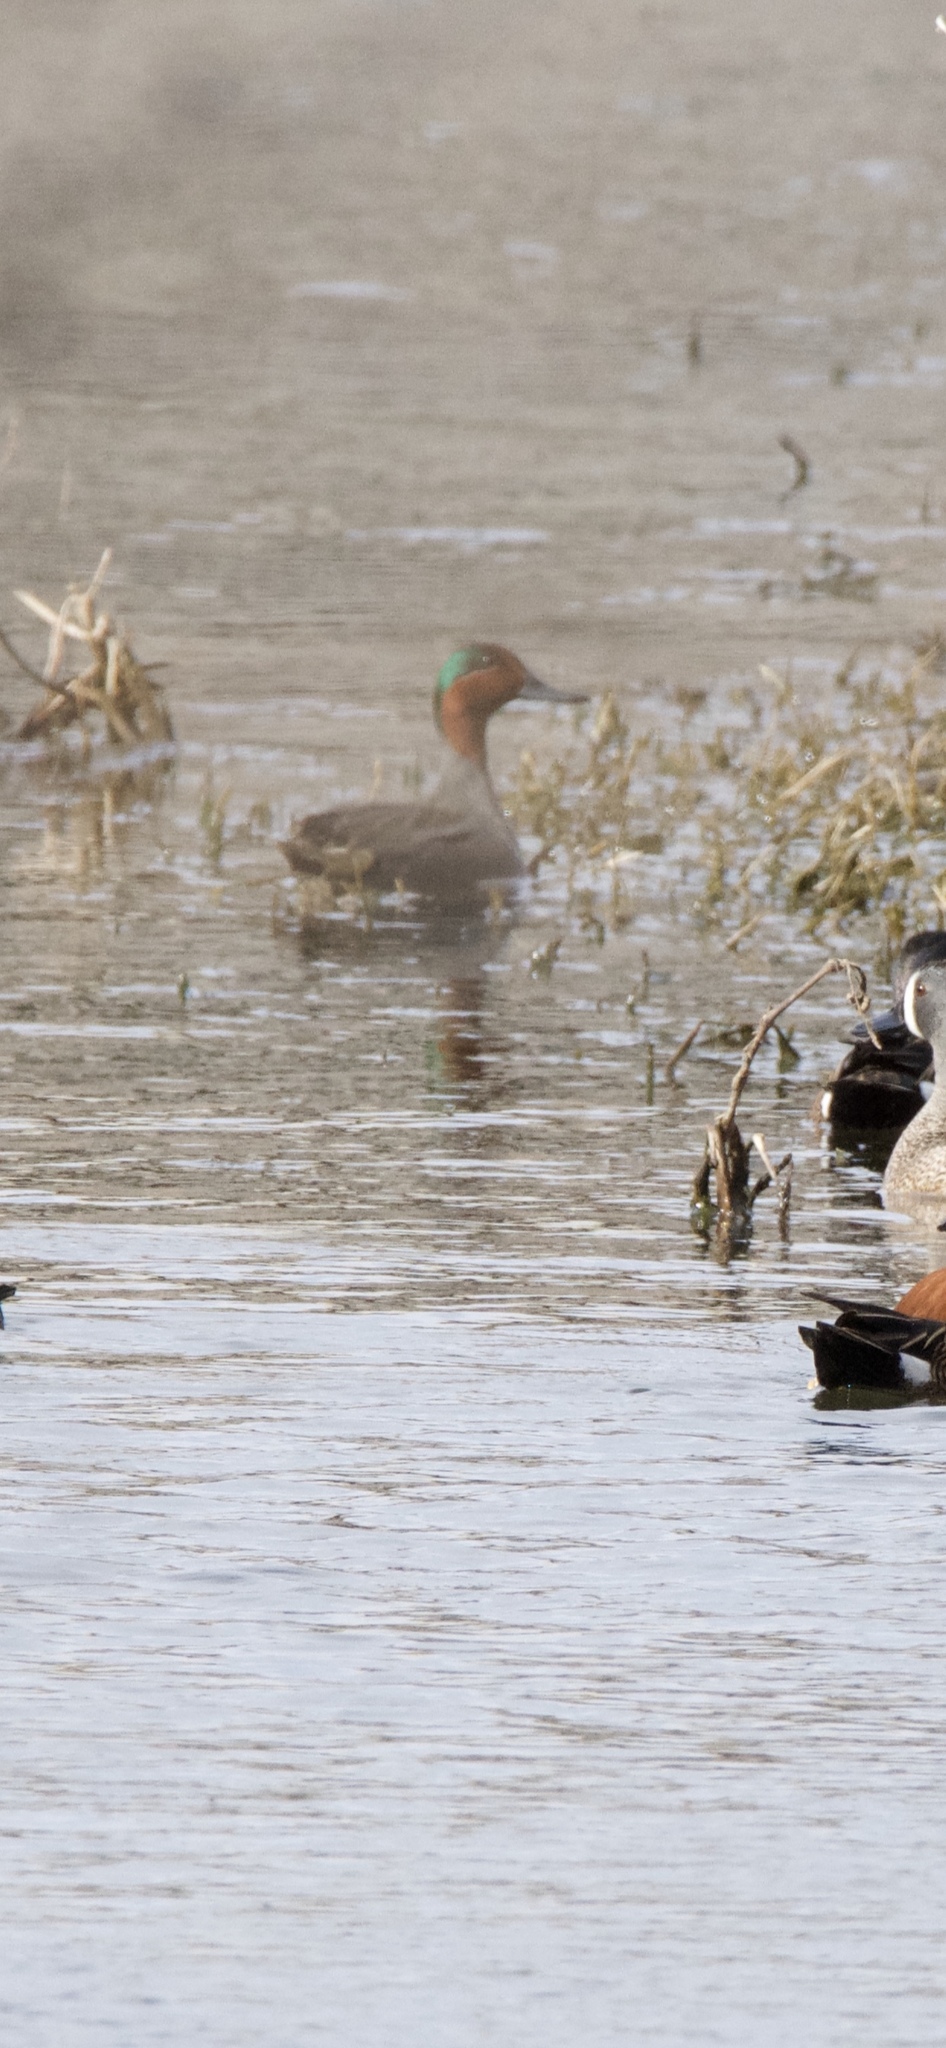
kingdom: Animalia
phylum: Chordata
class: Aves
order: Anseriformes
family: Anatidae
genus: Anas
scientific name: Anas crecca
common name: Eurasian teal
